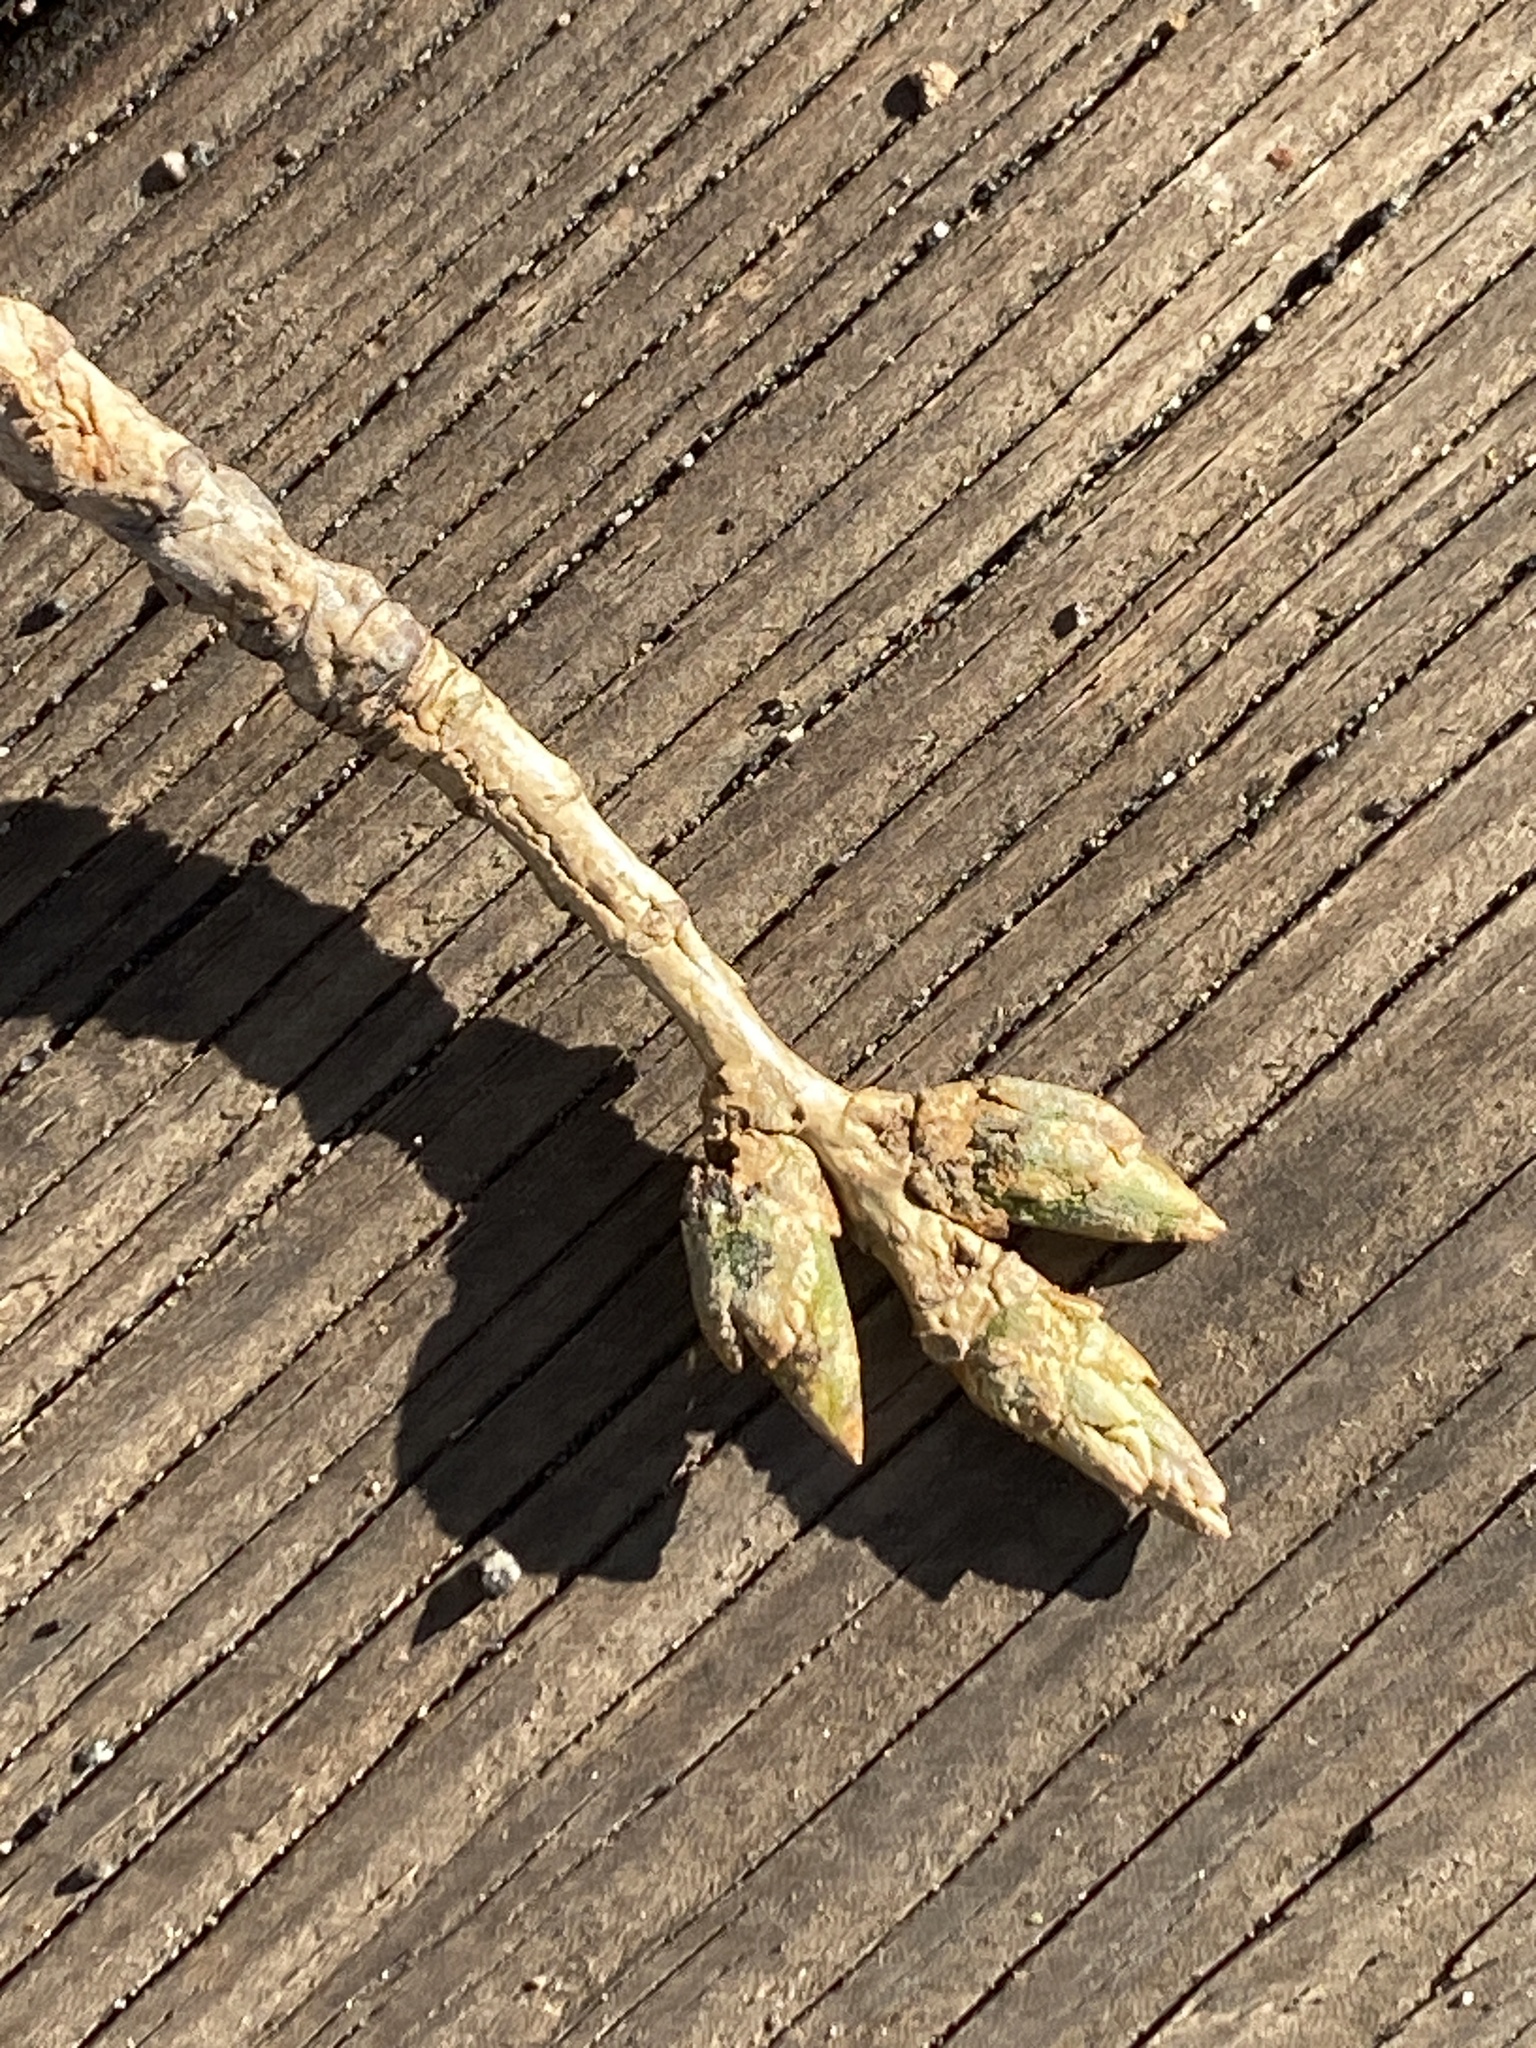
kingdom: Plantae
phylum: Tracheophyta
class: Magnoliopsida
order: Malpighiales
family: Salicaceae
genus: Populus
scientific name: Populus deltoides
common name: Eastern cottonwood
